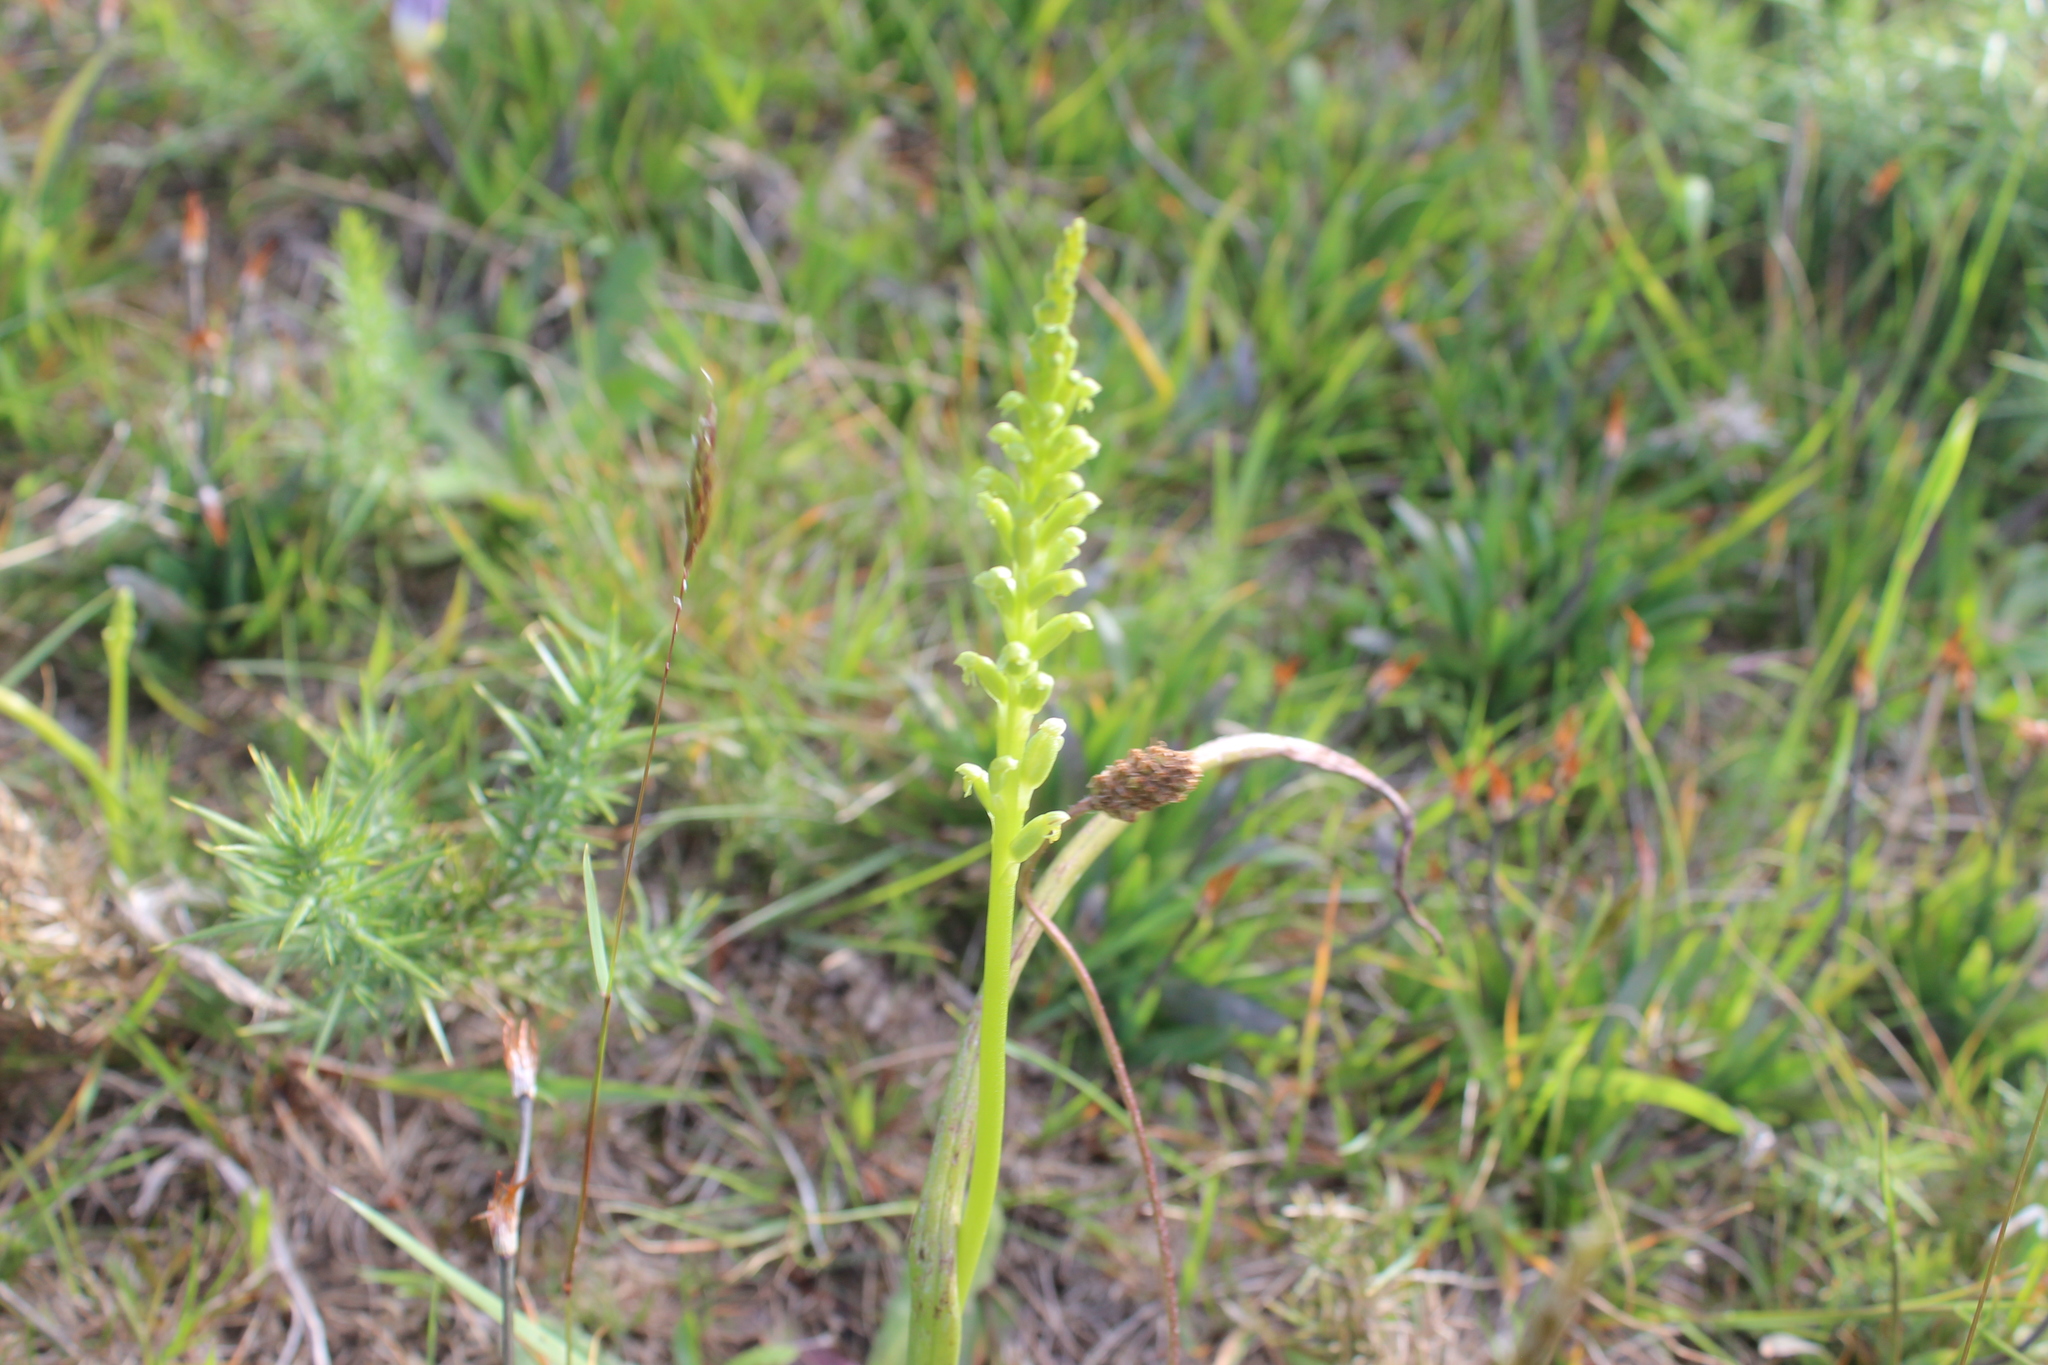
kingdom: Plantae
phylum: Tracheophyta
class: Liliopsida
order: Asparagales
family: Orchidaceae
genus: Microtis
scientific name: Microtis unifolia
